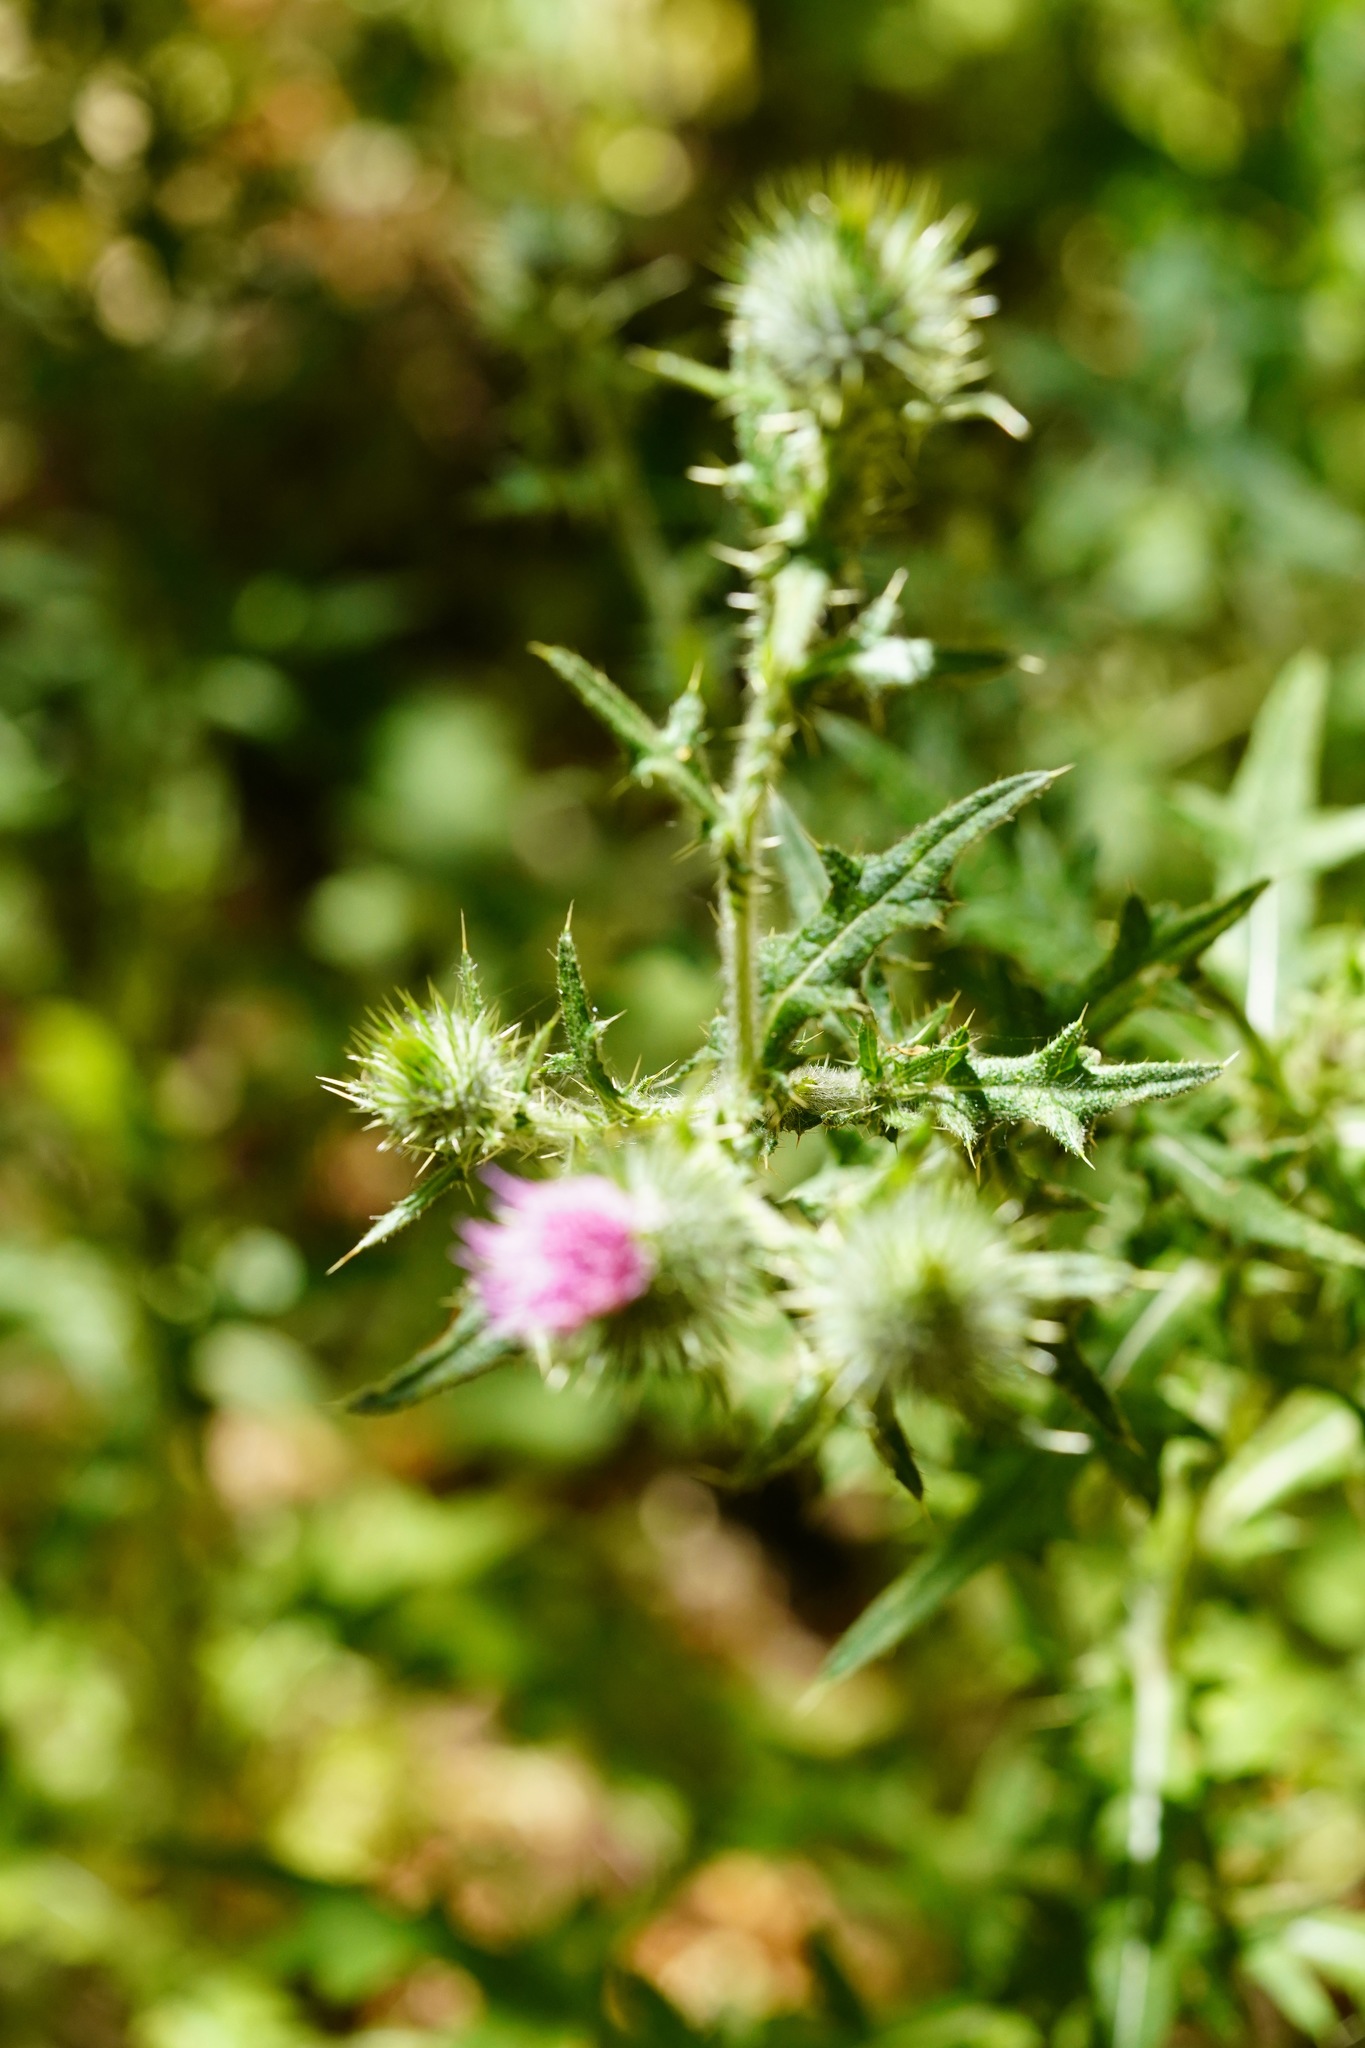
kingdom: Plantae
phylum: Tracheophyta
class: Magnoliopsida
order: Asterales
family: Asteraceae
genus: Cirsium
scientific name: Cirsium vulgare
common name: Bull thistle
